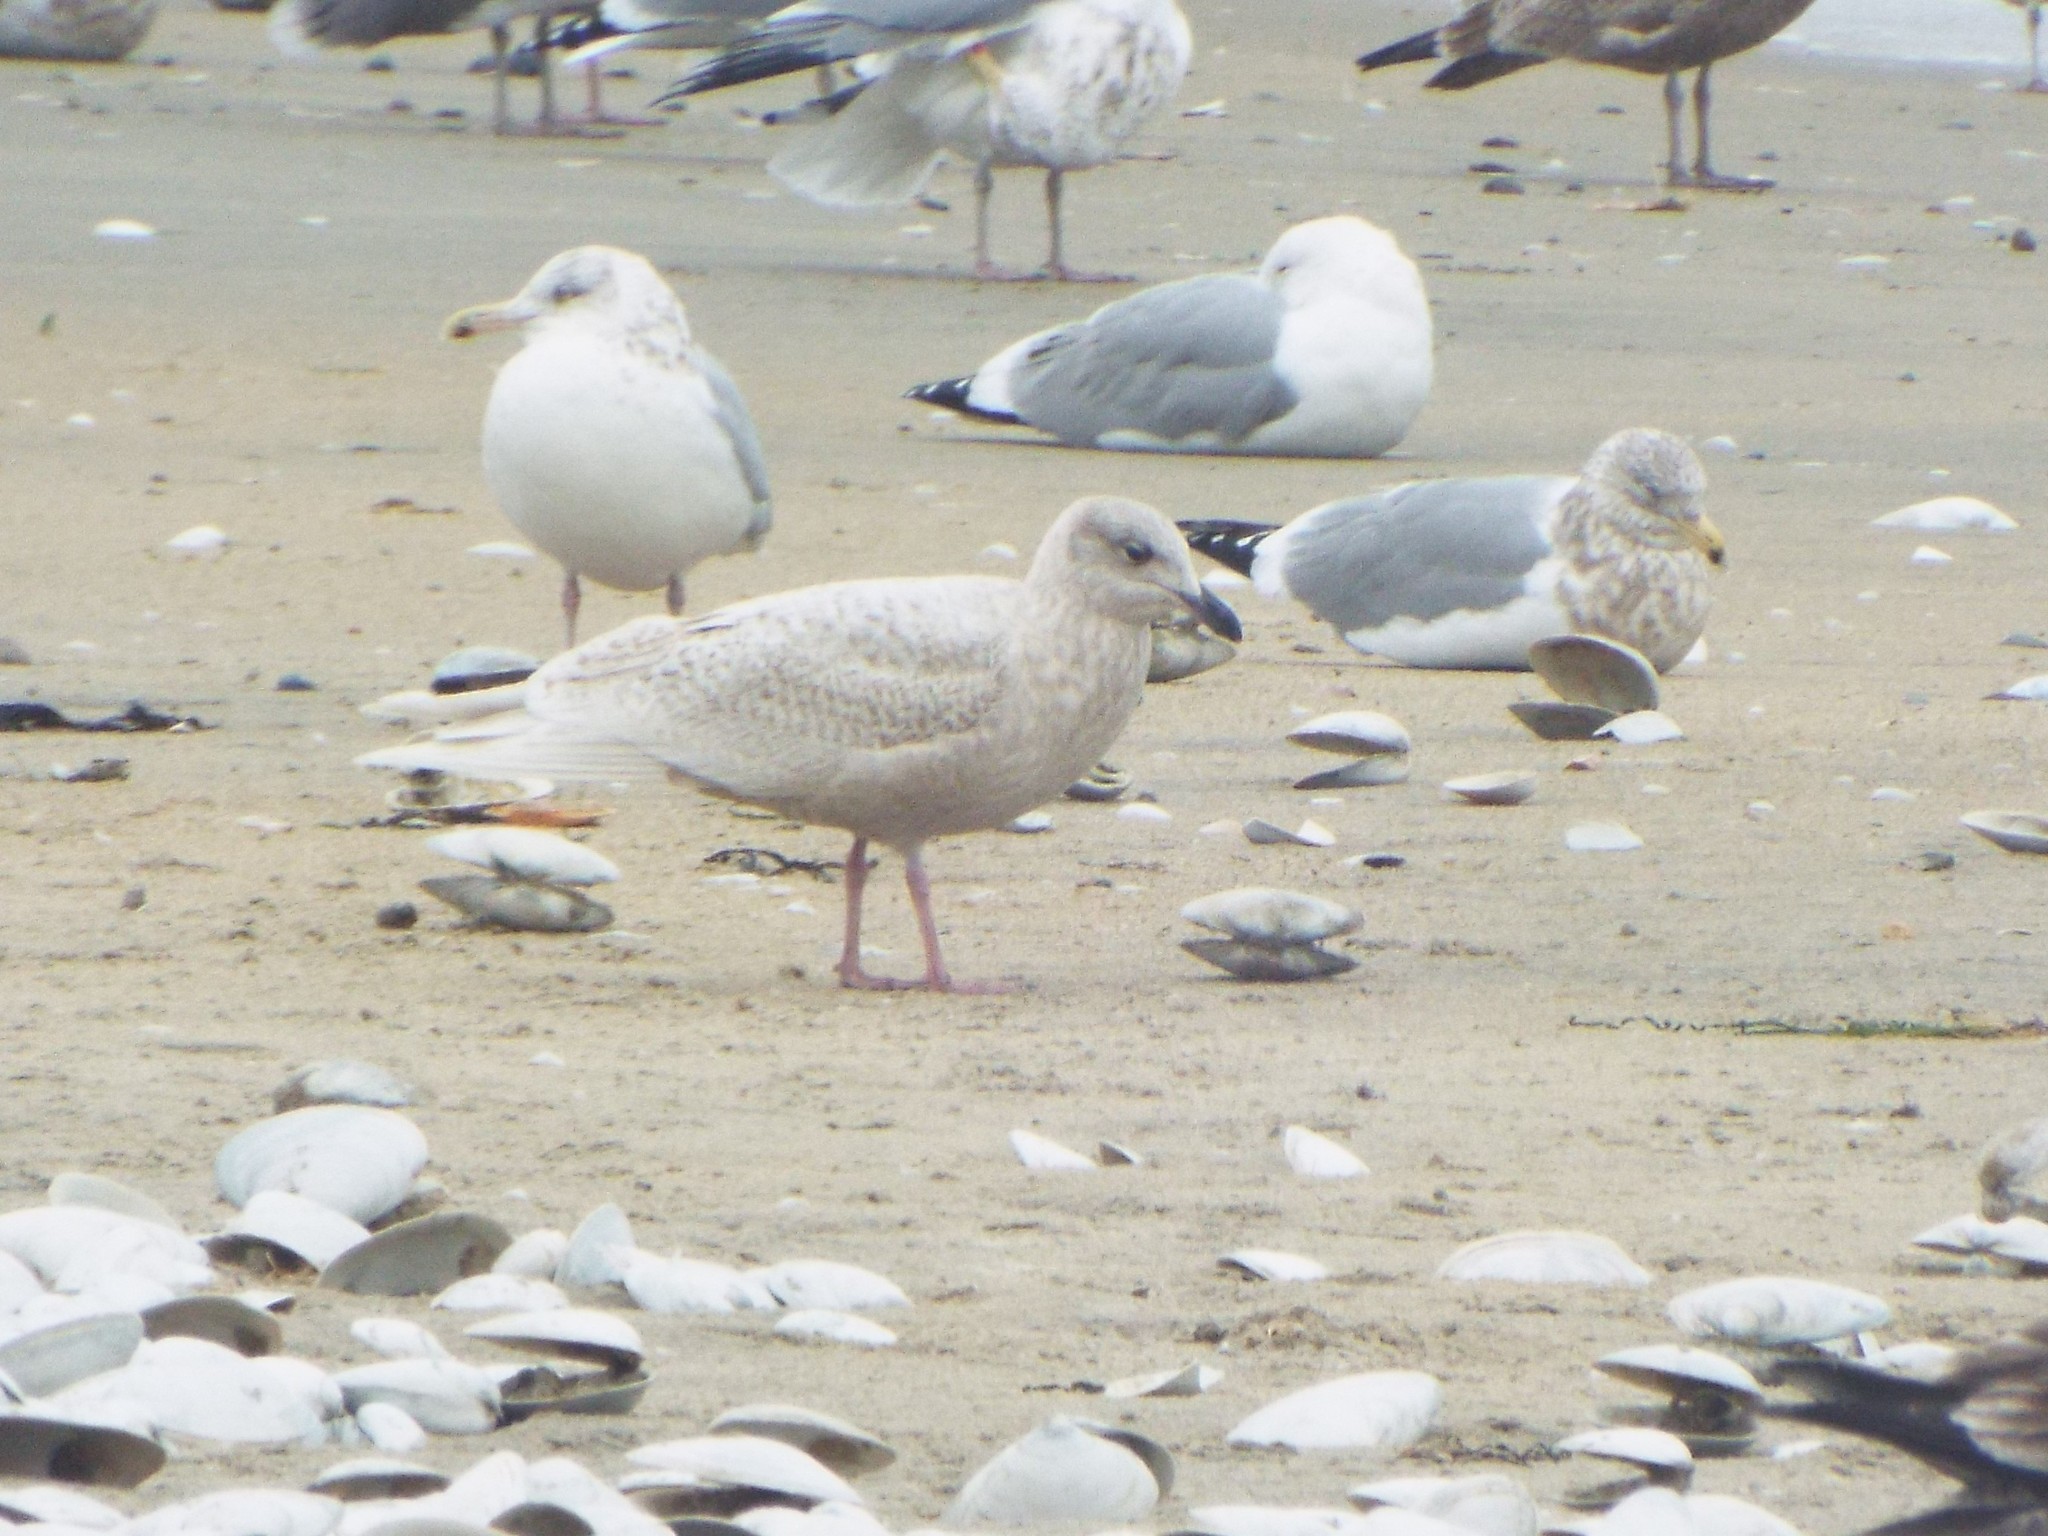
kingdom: Animalia
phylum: Chordata
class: Aves
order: Charadriiformes
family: Laridae
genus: Larus
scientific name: Larus glaucoides
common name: Iceland gull
